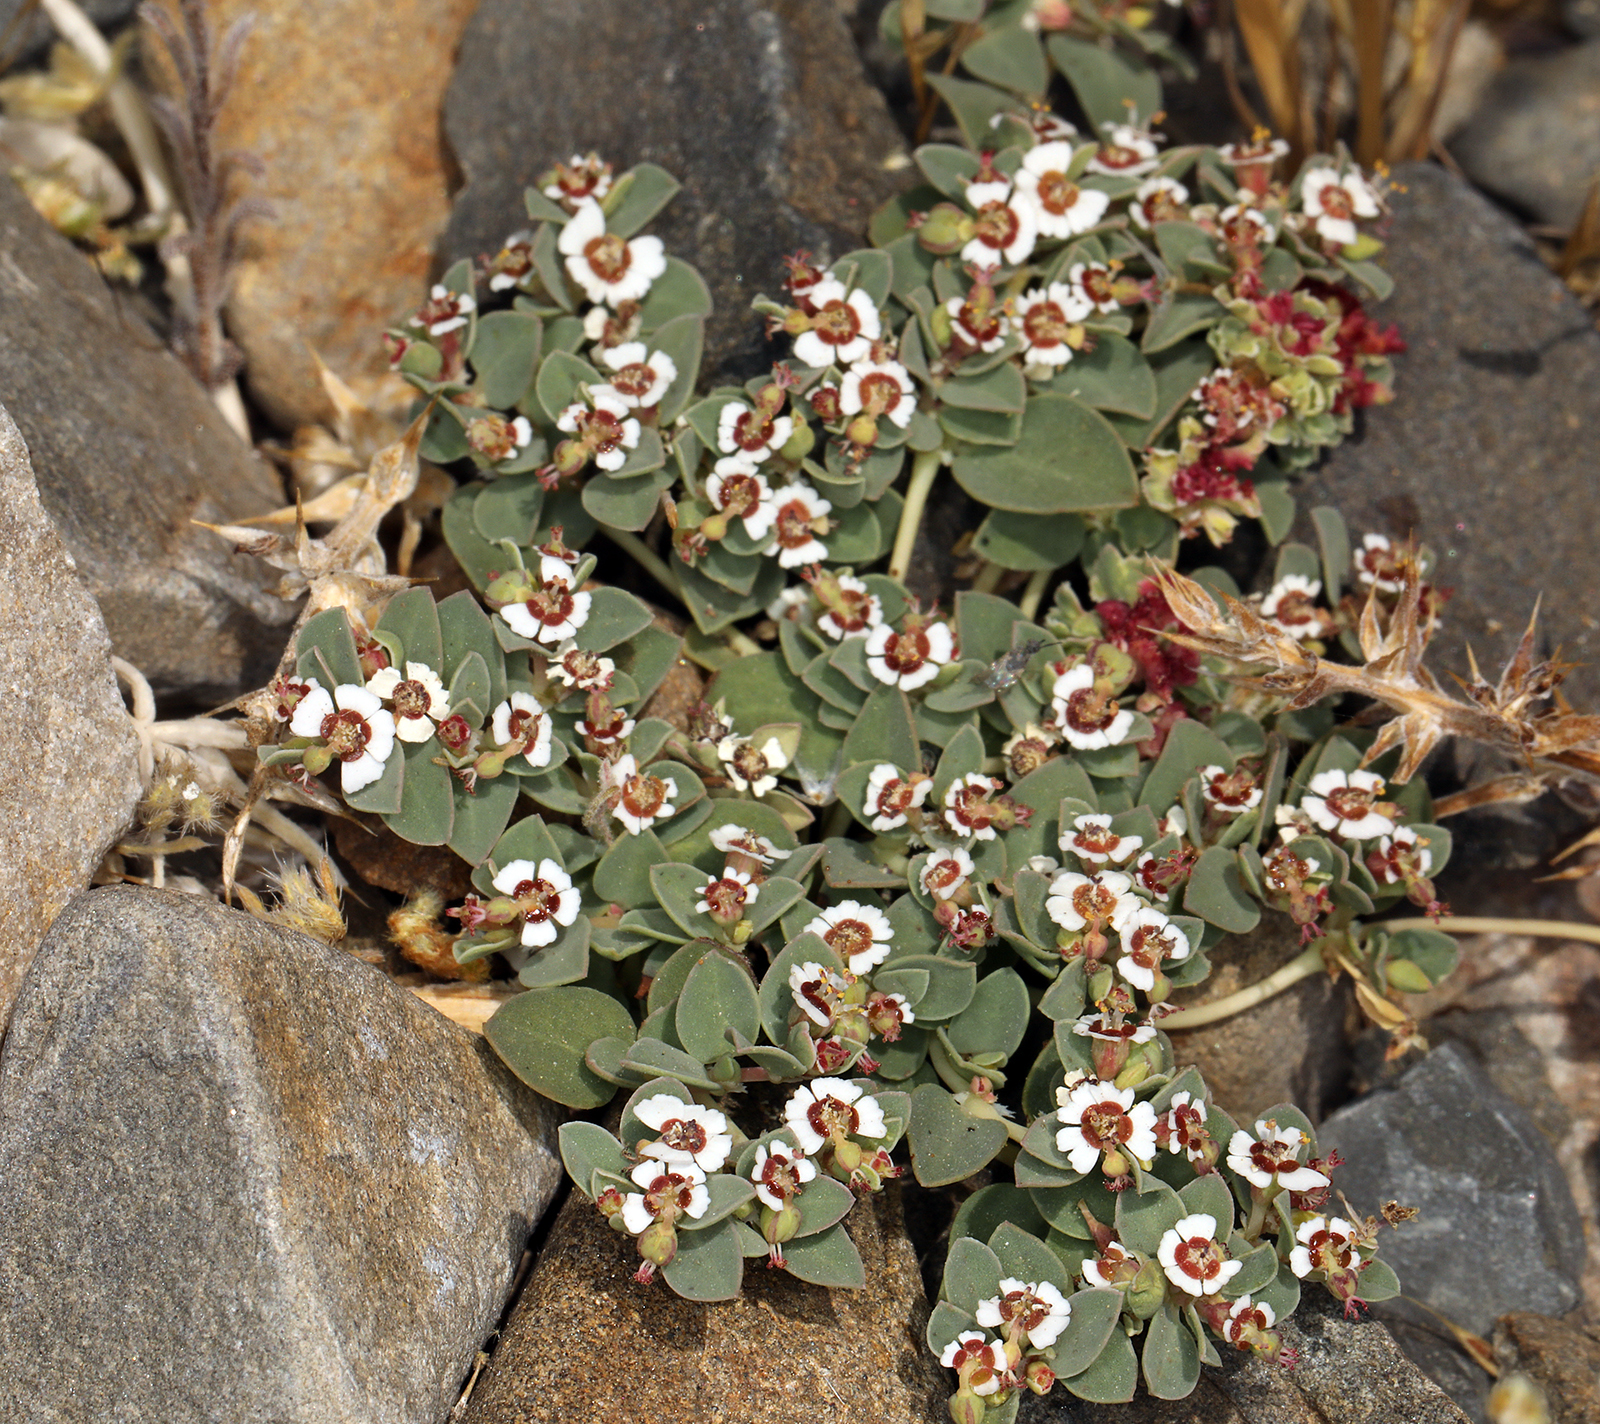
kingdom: Plantae
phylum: Tracheophyta
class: Magnoliopsida
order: Malpighiales
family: Euphorbiaceae
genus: Euphorbia
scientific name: Euphorbia albomarginata
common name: Whitemargin sandmat
